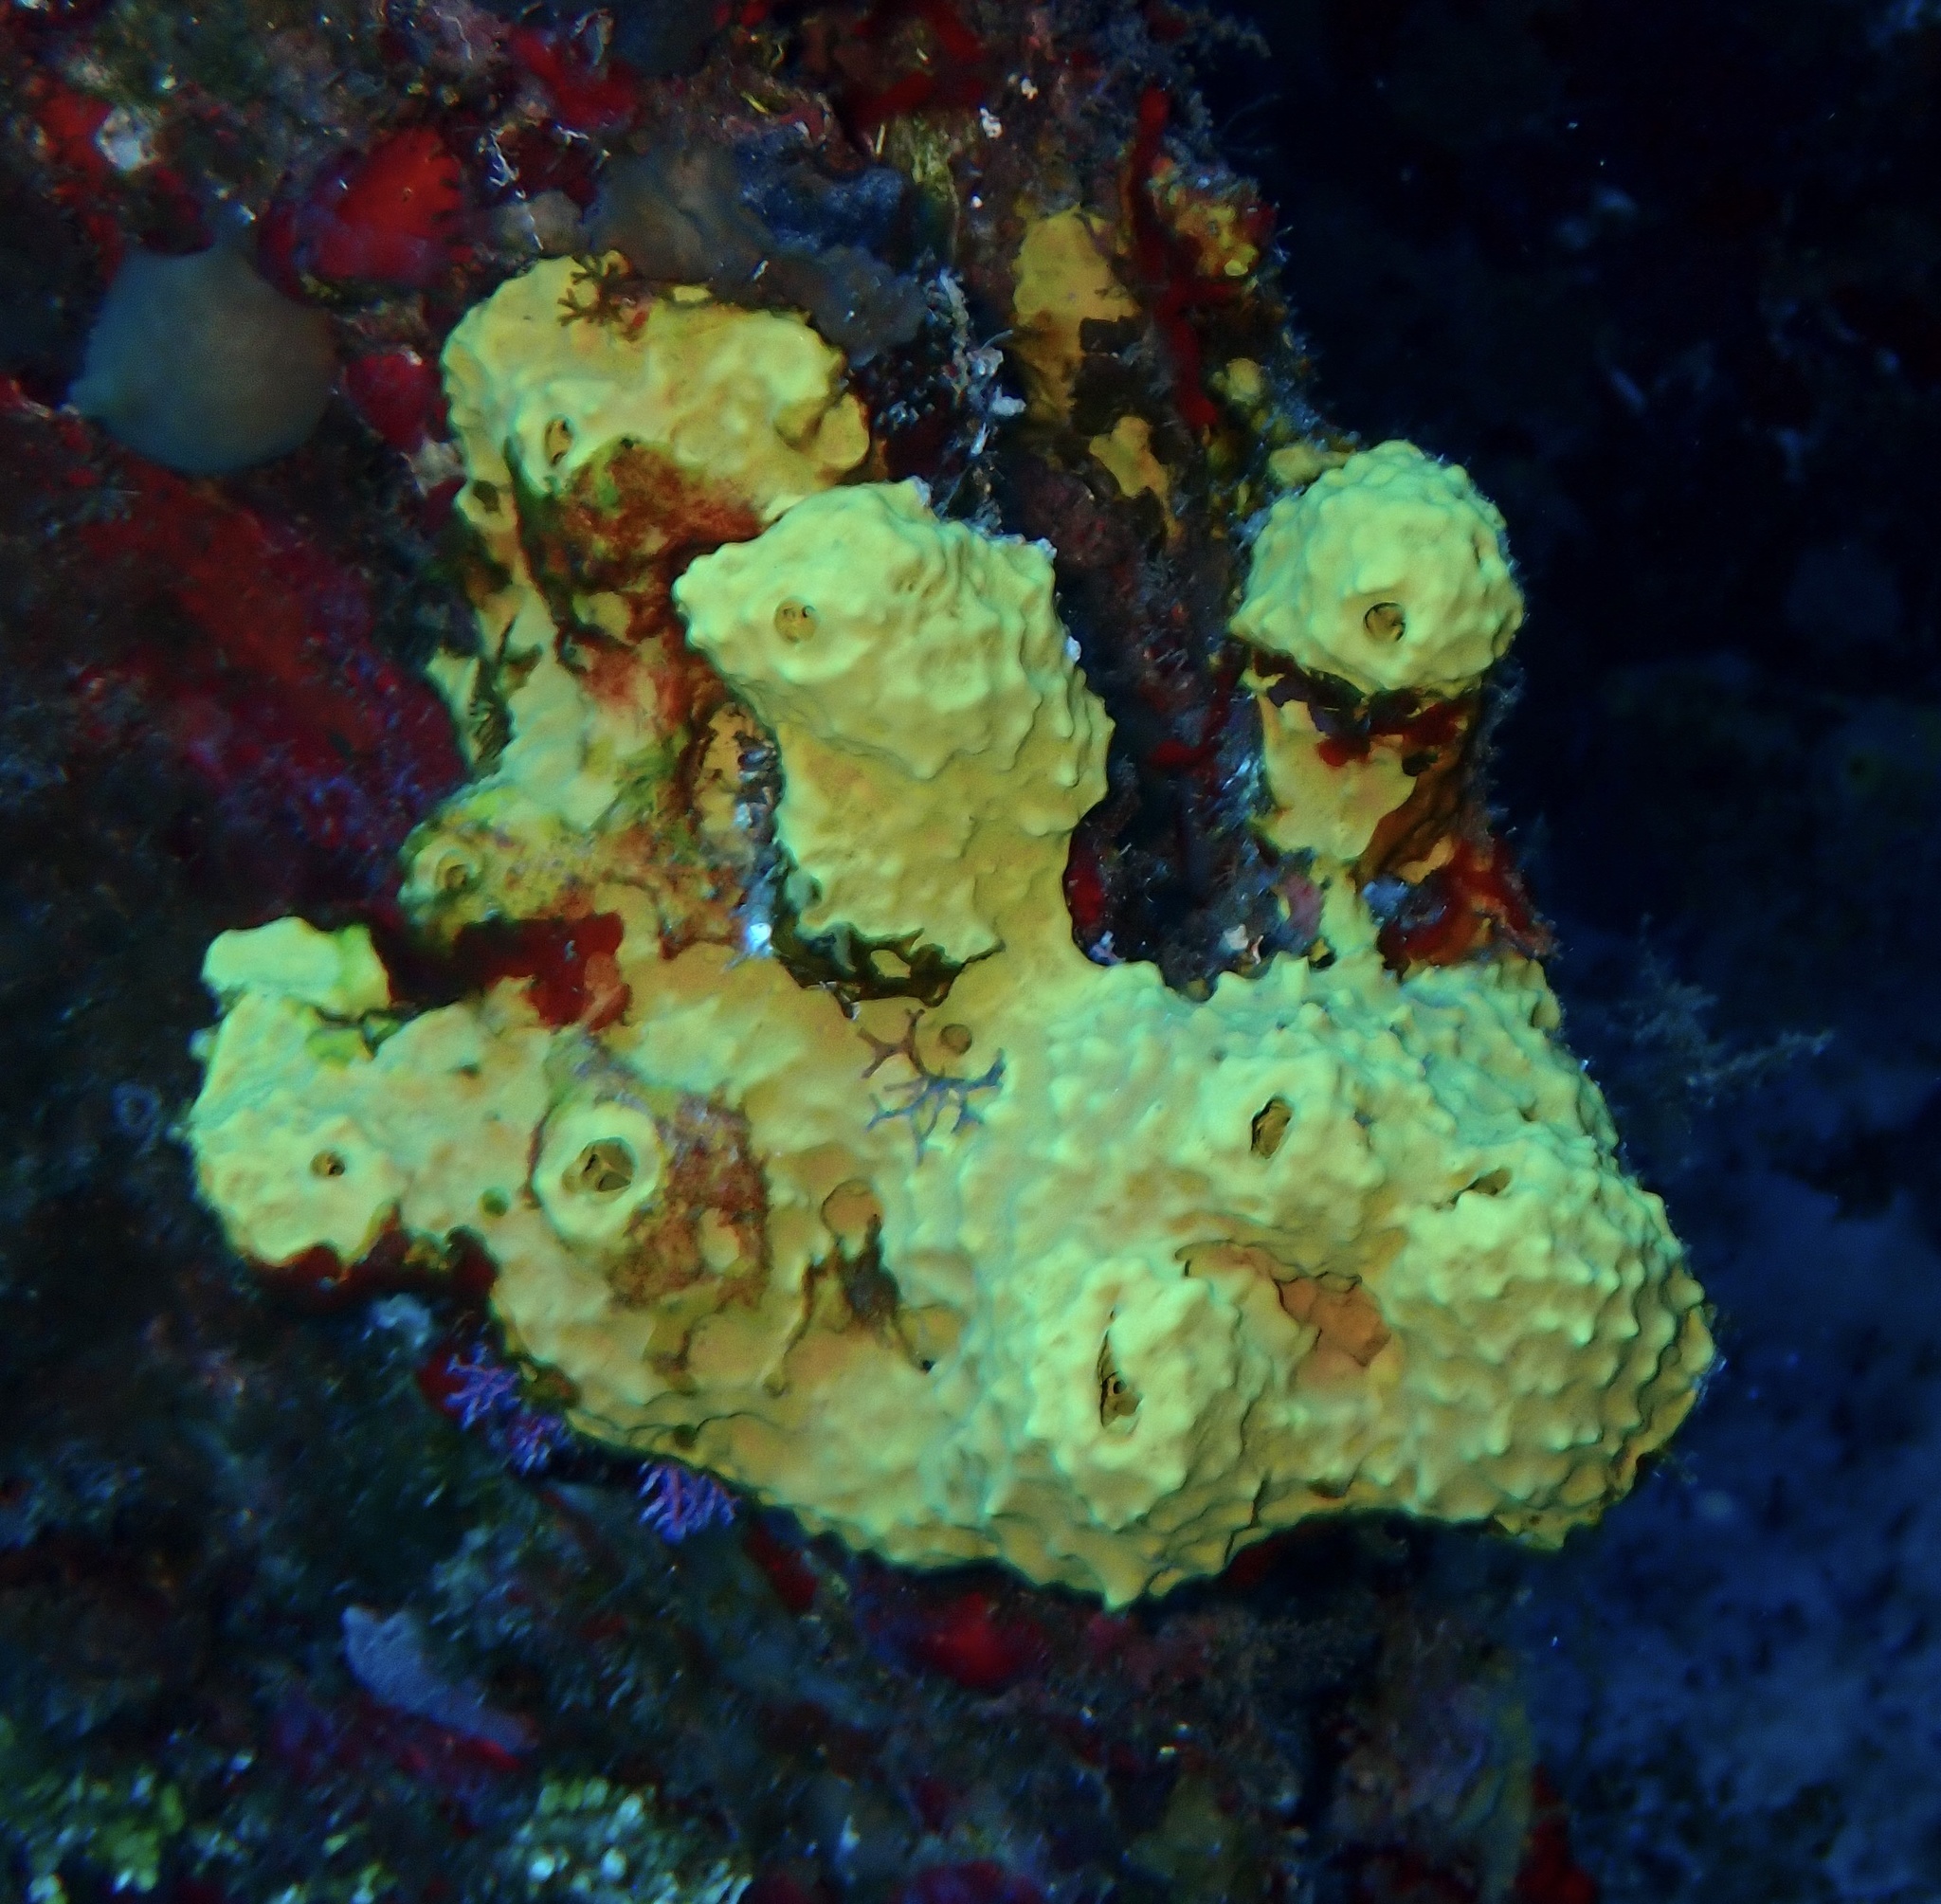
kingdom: Animalia
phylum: Porifera
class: Demospongiae
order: Verongiida
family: Aplysinidae
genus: Aiolochroia
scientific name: Aiolochroia crassa
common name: Branching tube sponge
